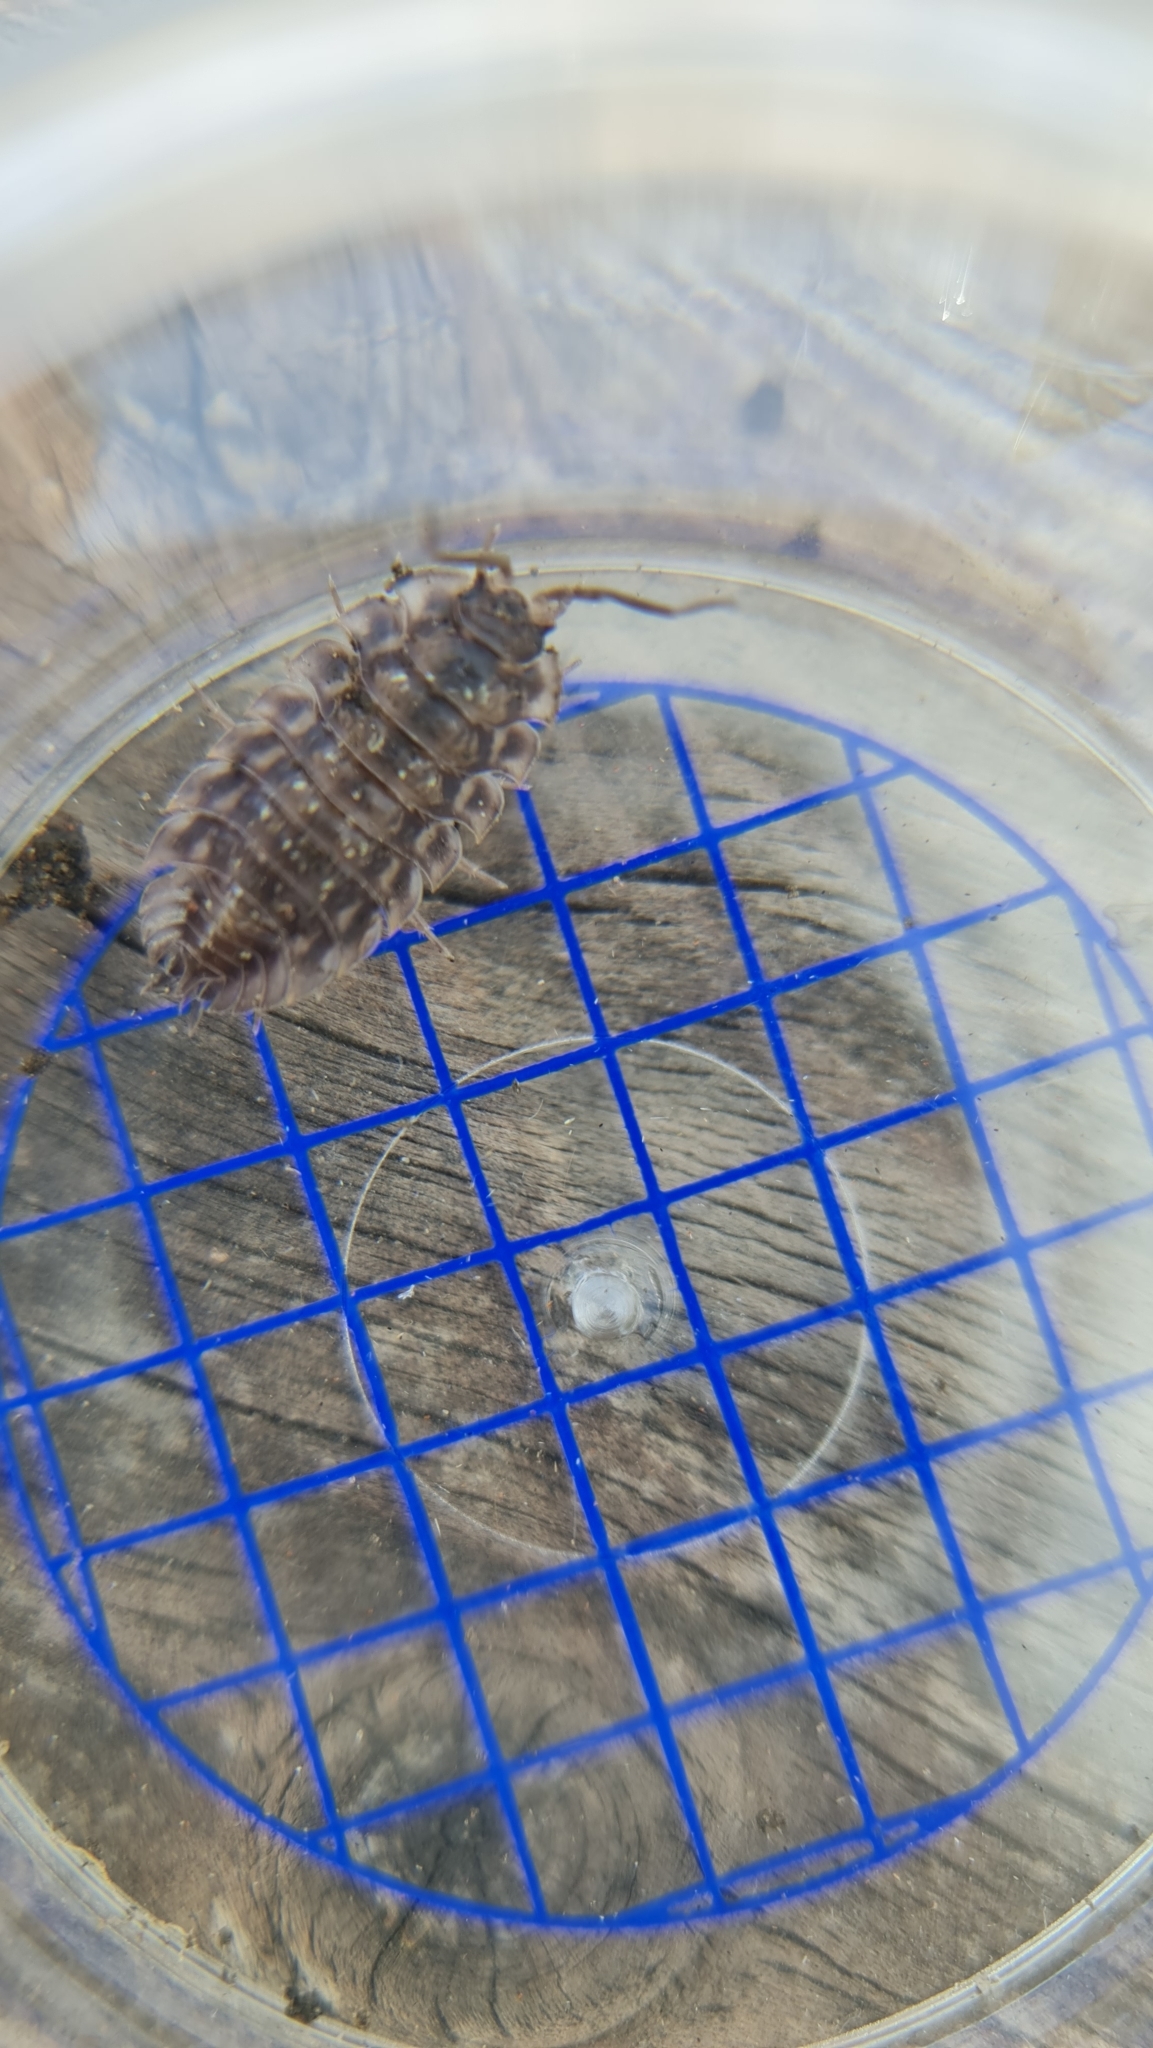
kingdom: Animalia
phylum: Arthropoda
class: Malacostraca
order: Isopoda
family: Oniscidae
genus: Oniscus
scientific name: Oniscus asellus
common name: Common shiny woodlouse
